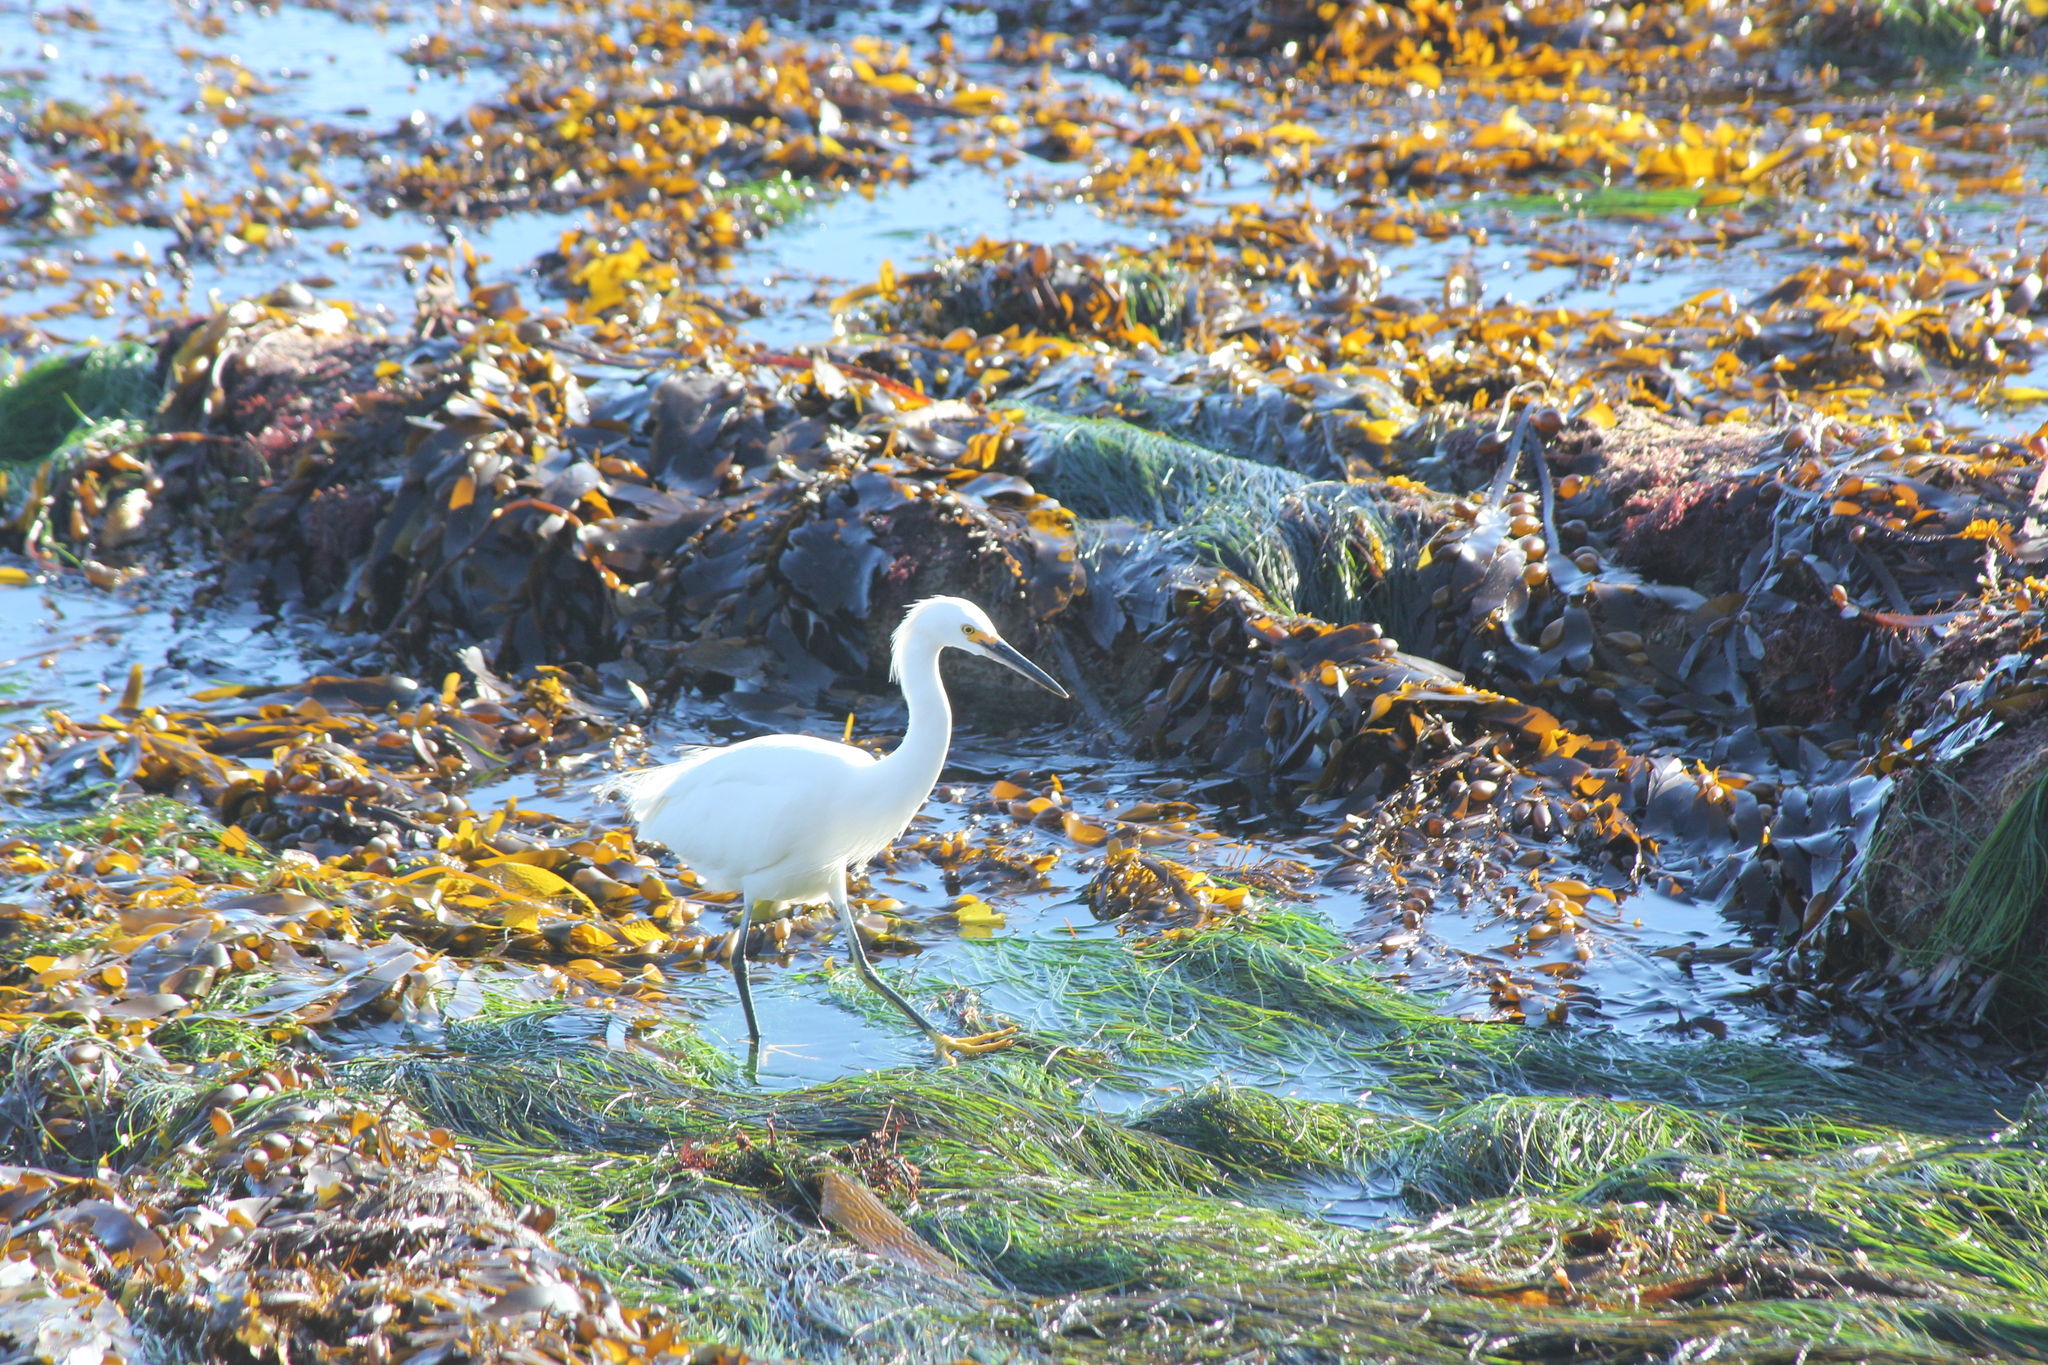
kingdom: Animalia
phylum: Chordata
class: Aves
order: Pelecaniformes
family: Ardeidae
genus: Egretta
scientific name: Egretta thula
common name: Snowy egret
